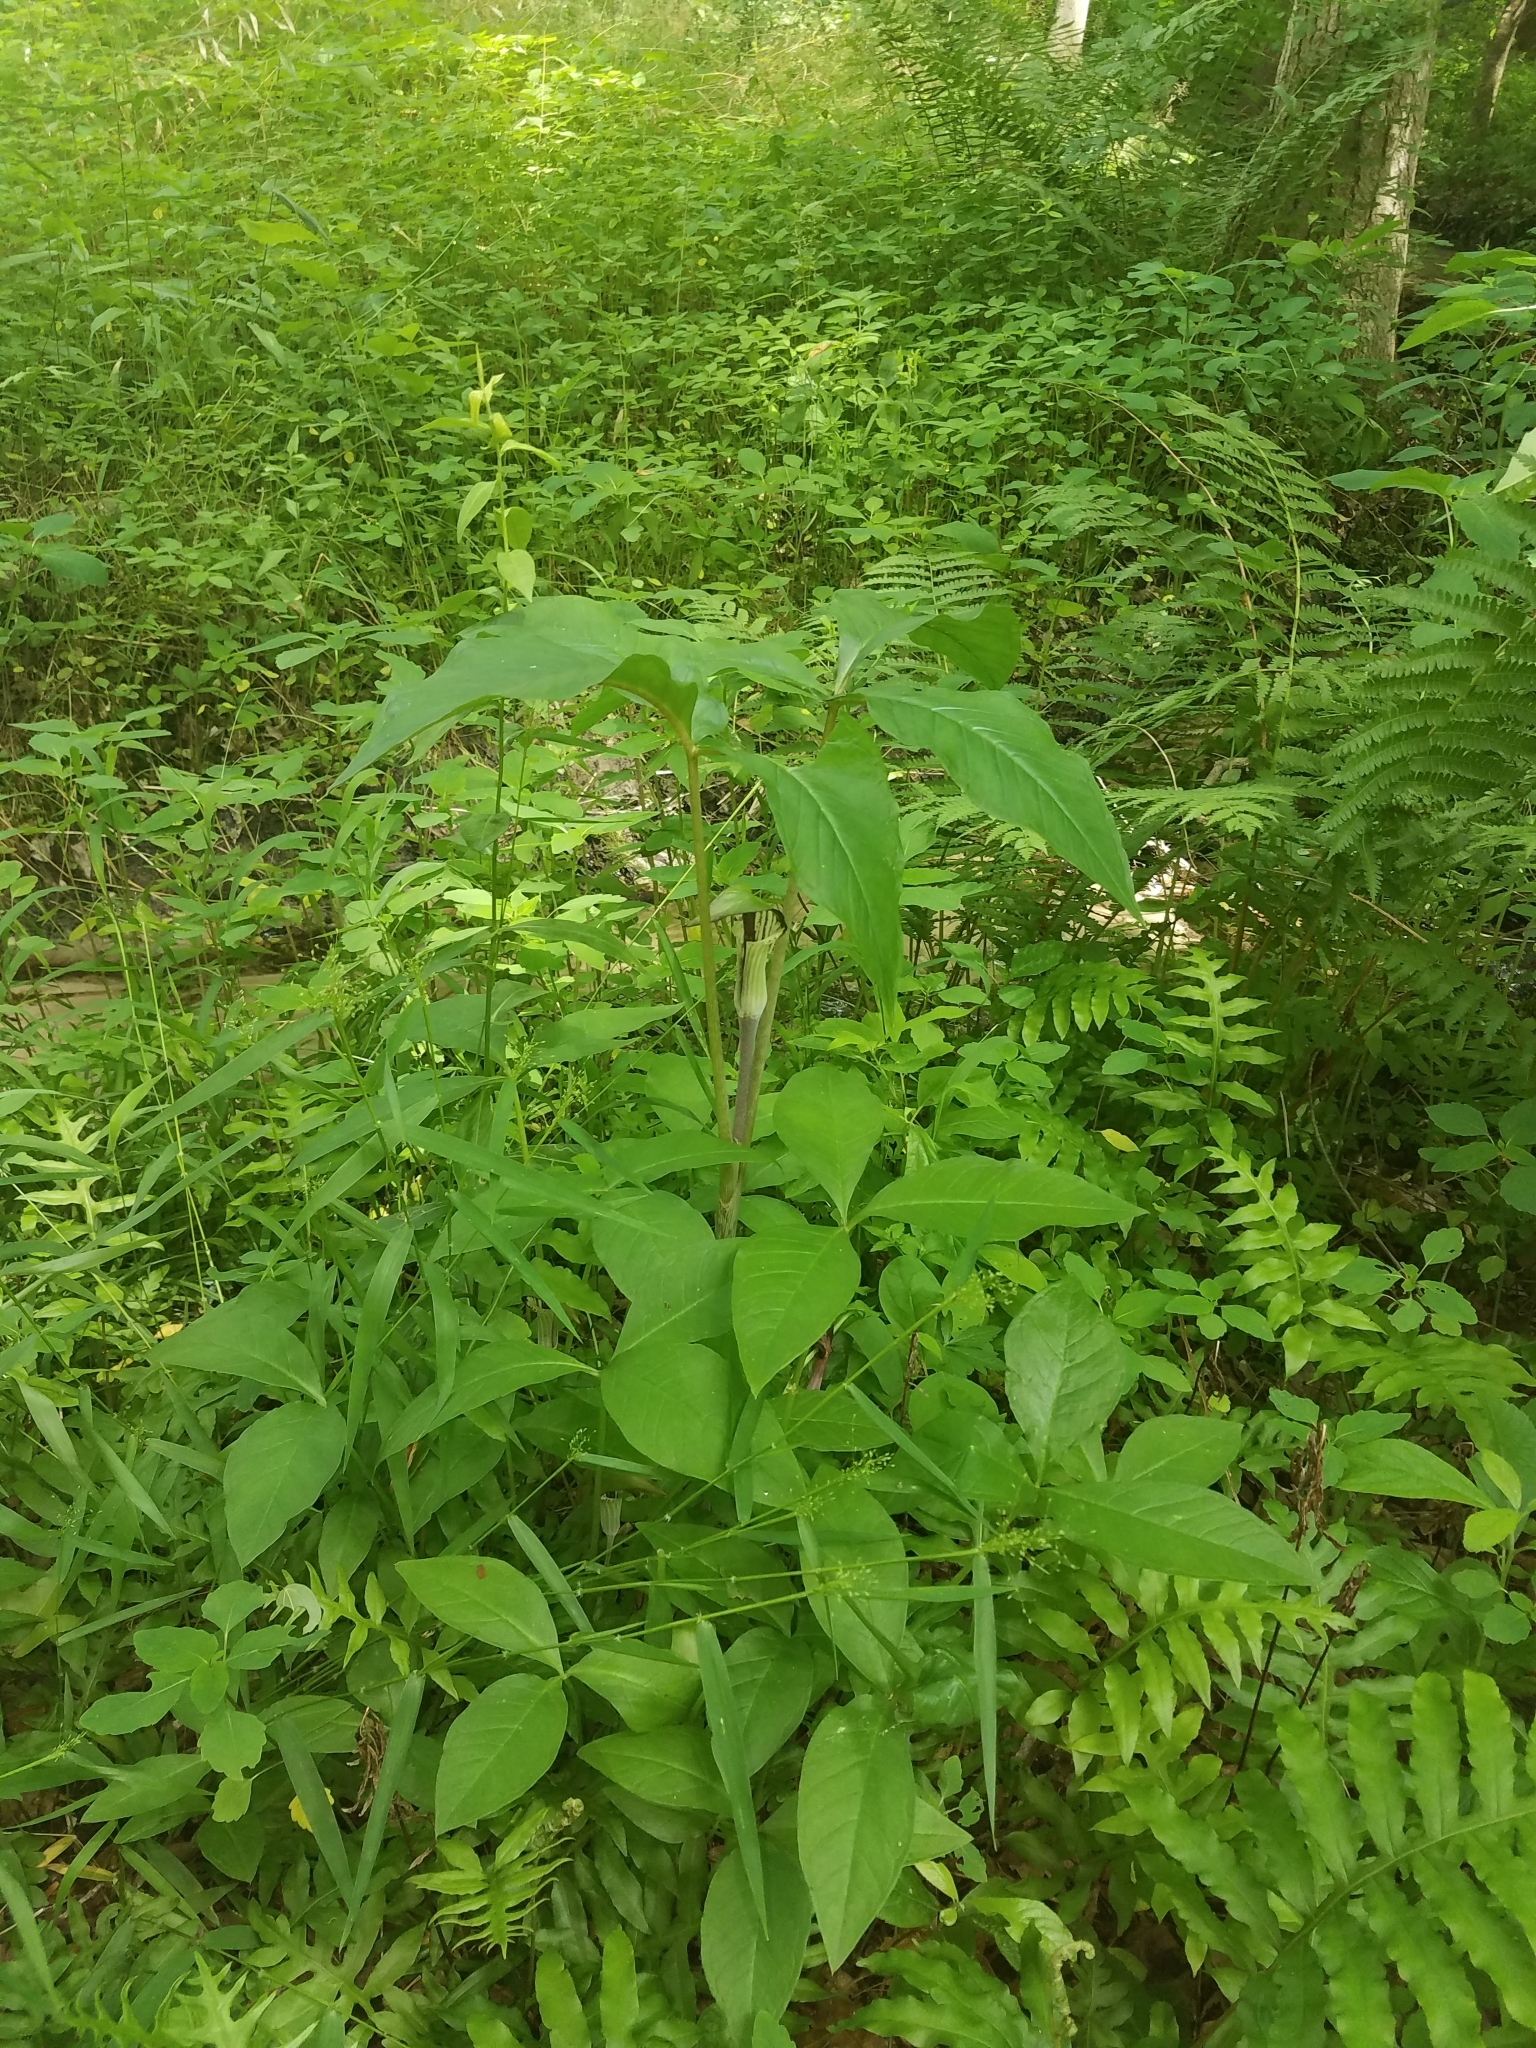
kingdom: Plantae
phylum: Tracheophyta
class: Liliopsida
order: Alismatales
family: Araceae
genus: Arisaema
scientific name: Arisaema triphyllum
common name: Jack-in-the-pulpit
